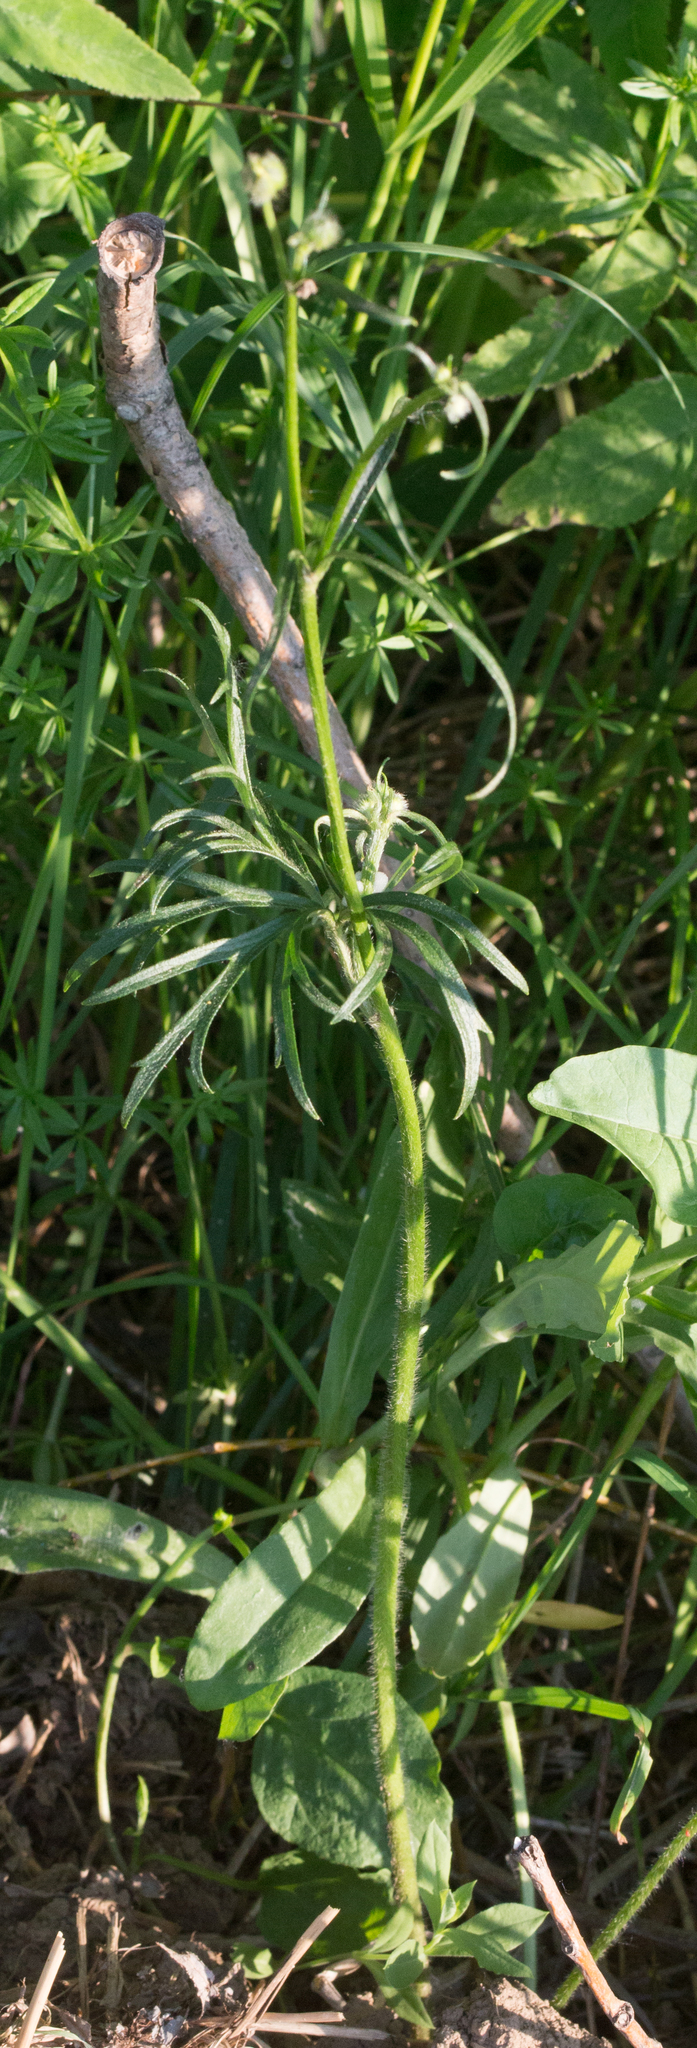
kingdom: Plantae
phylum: Tracheophyta
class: Magnoliopsida
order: Ranunculales
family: Ranunculaceae
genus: Ranunculus
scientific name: Ranunculus polyanthemos
